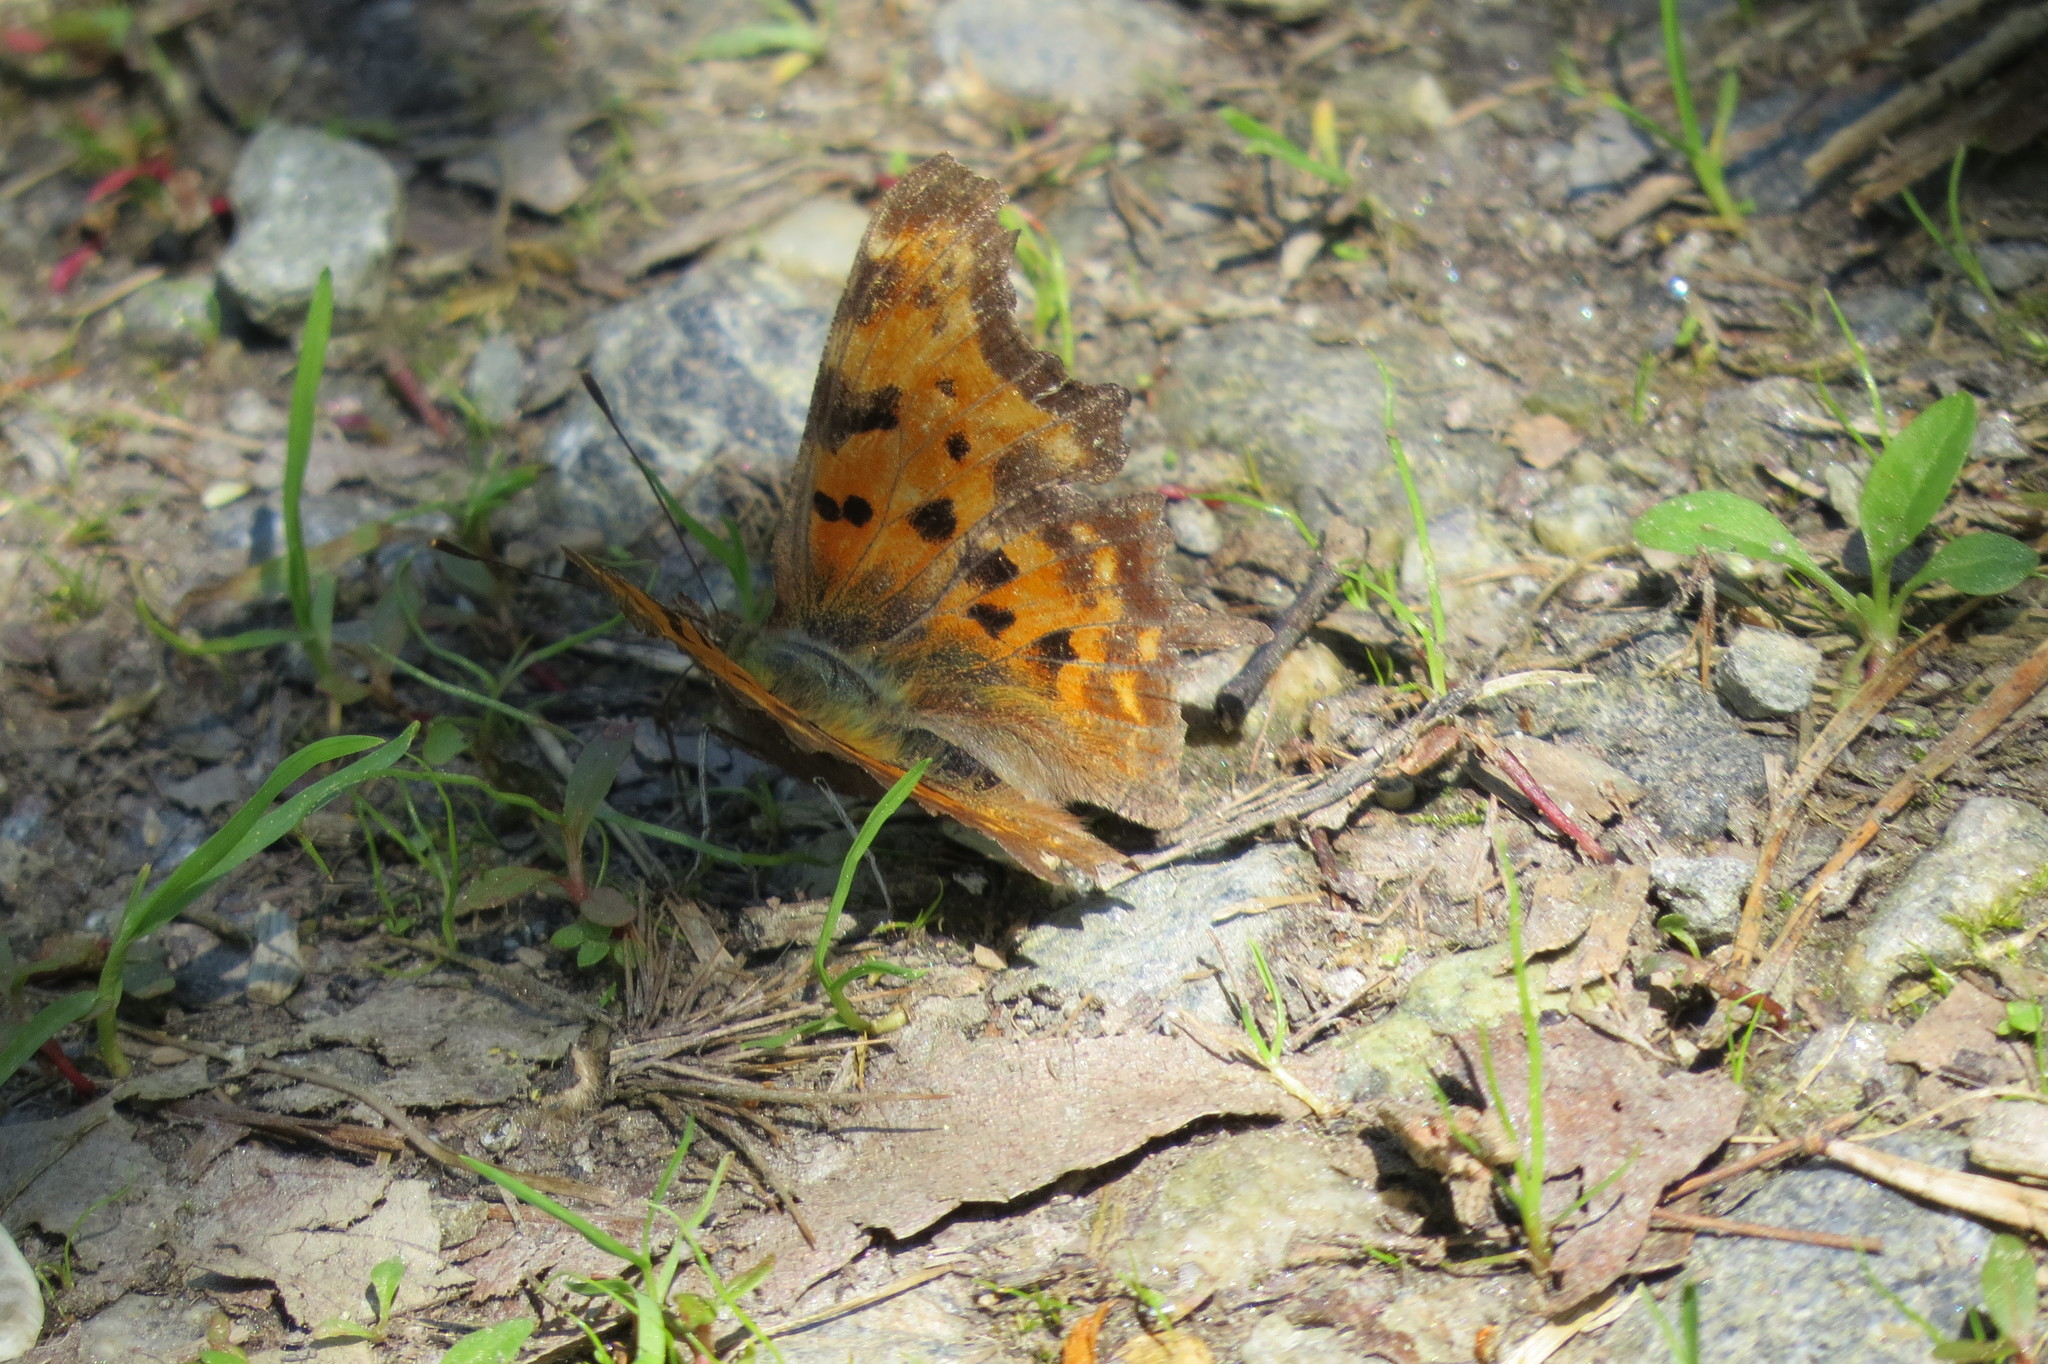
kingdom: Animalia
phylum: Arthropoda
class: Insecta
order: Lepidoptera
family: Nymphalidae
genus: Polygonia
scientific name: Polygonia c-album
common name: Comma
